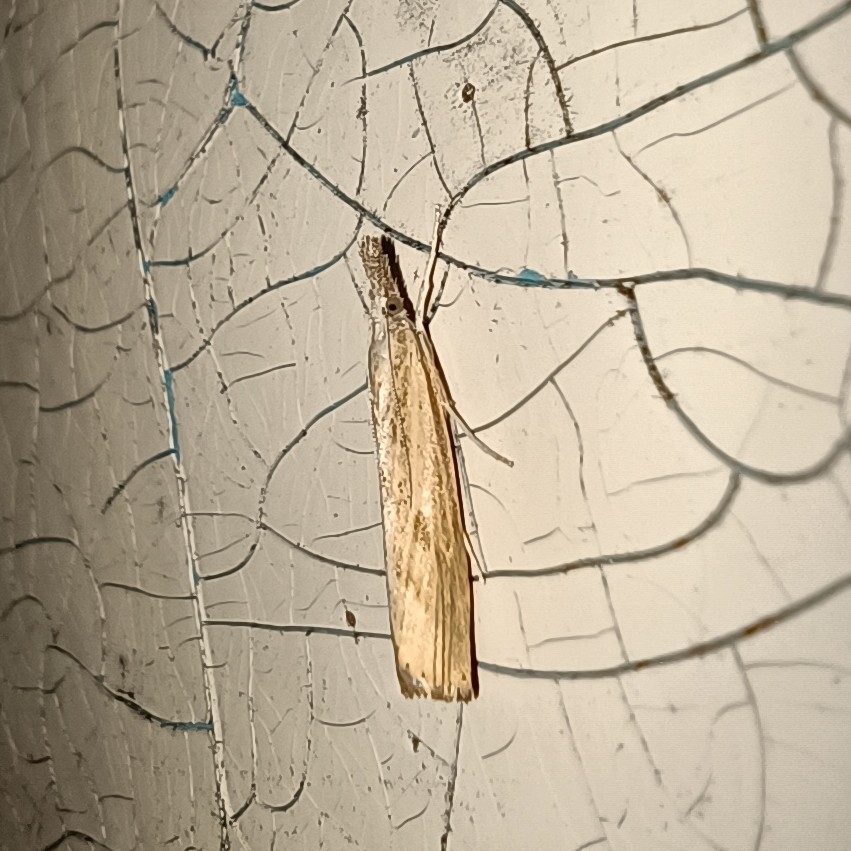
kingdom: Animalia
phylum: Arthropoda
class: Insecta
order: Lepidoptera
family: Crambidae
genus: Agriphila
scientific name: Agriphila inquinatella
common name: Barred grass-veneer
